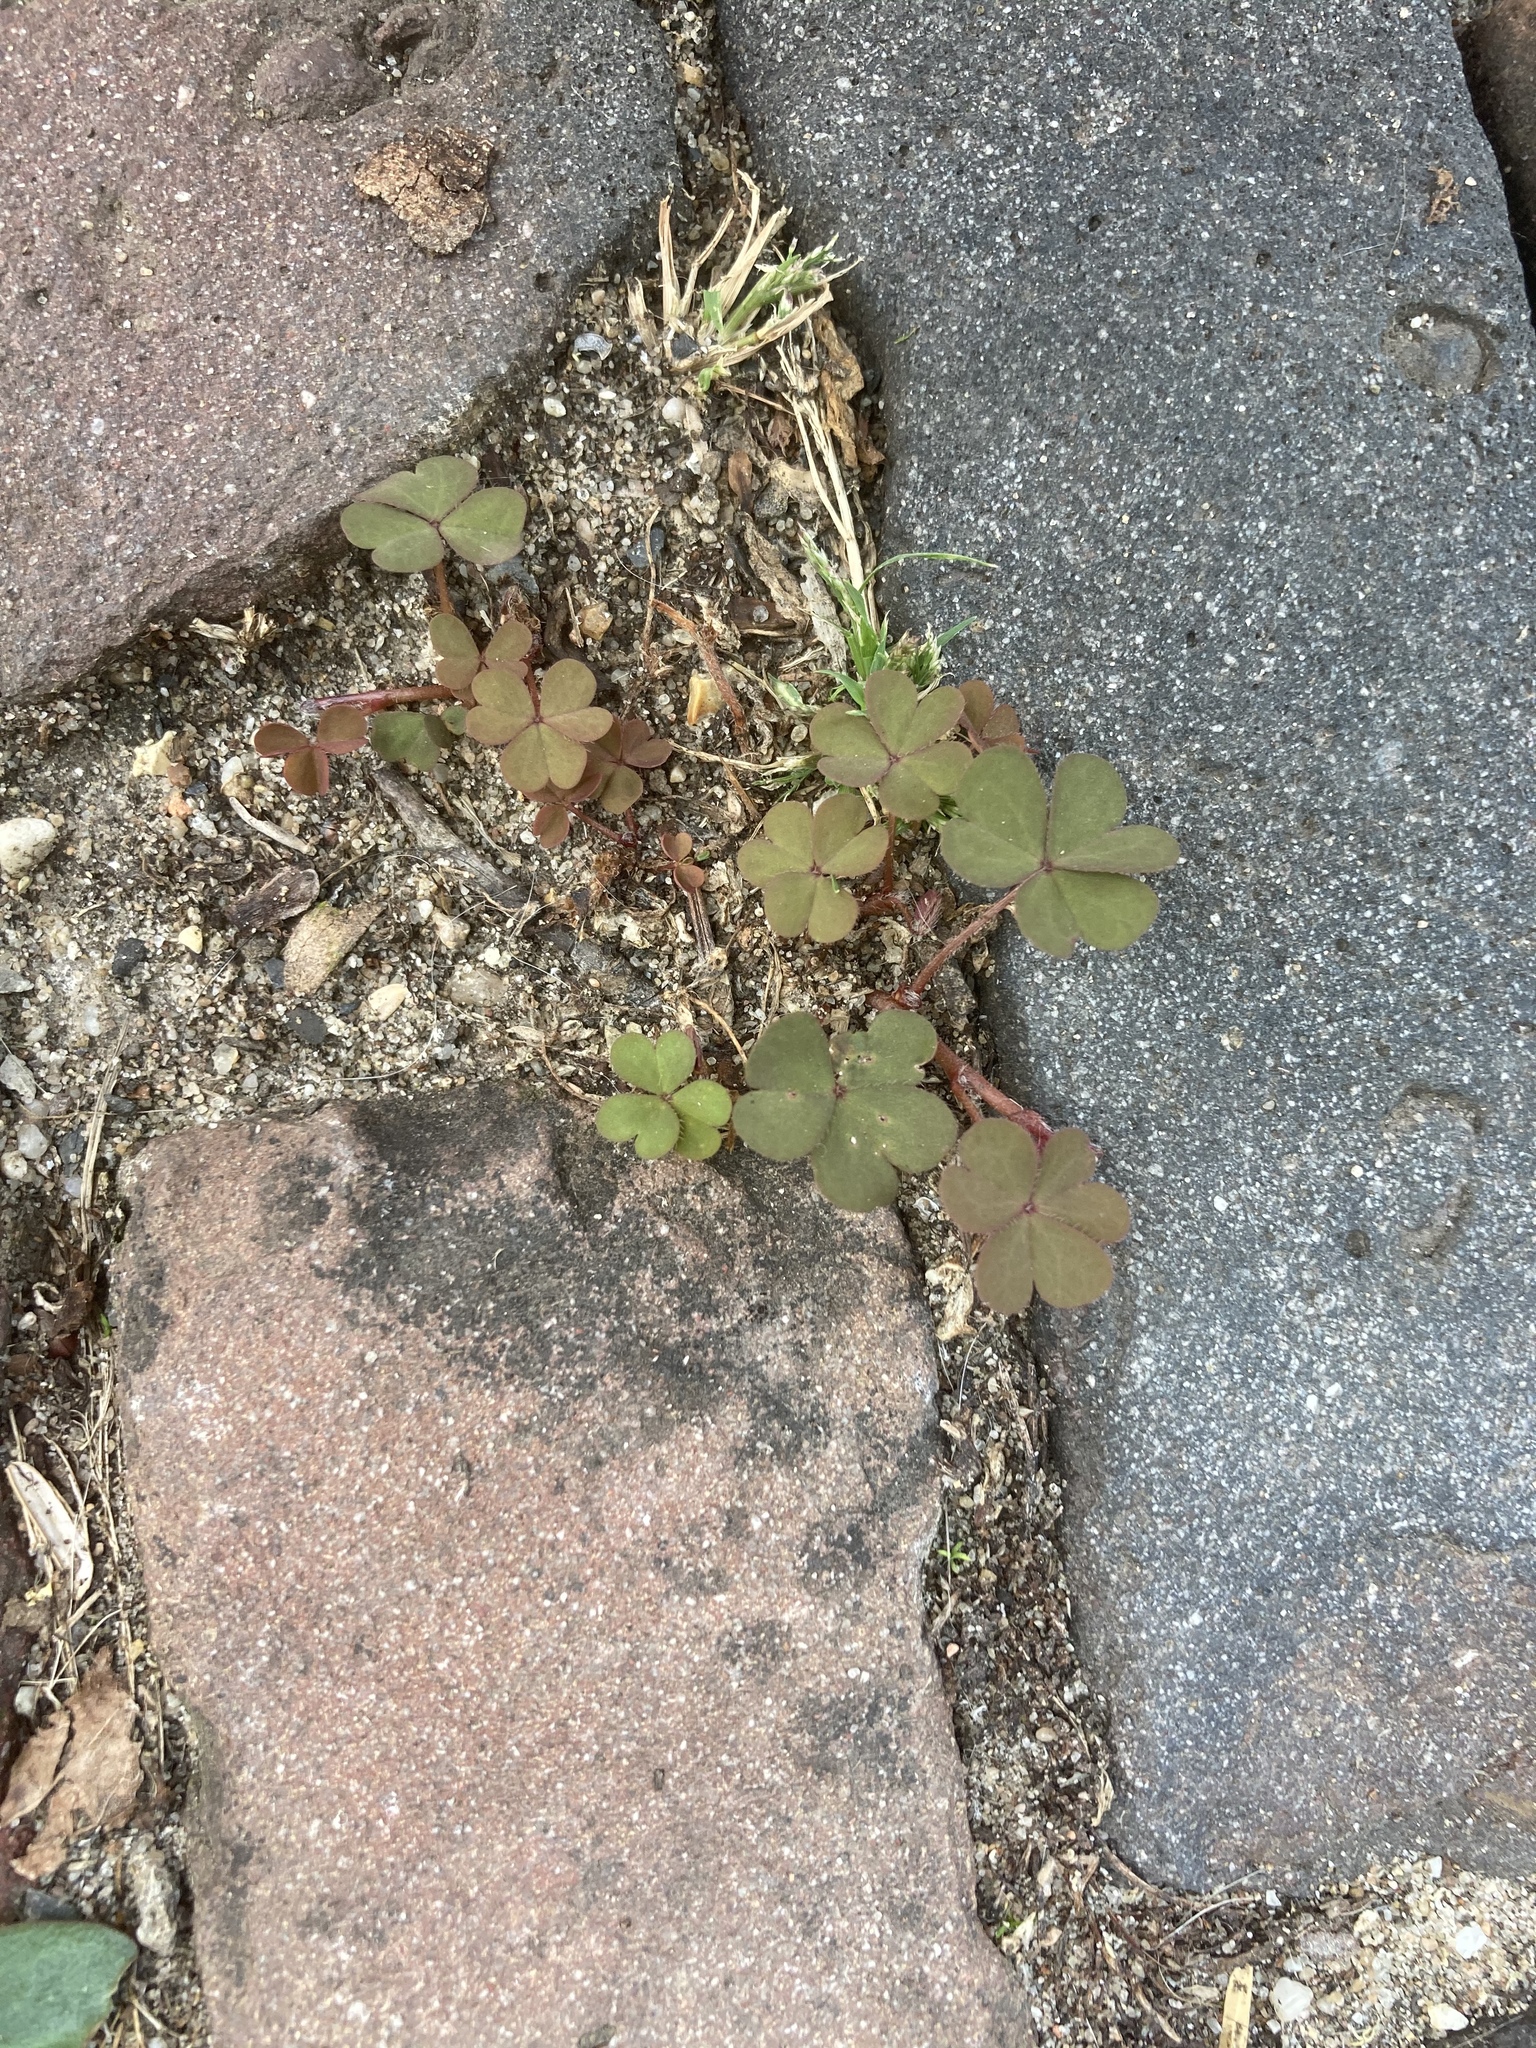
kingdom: Plantae
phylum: Tracheophyta
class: Magnoliopsida
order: Oxalidales
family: Oxalidaceae
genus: Oxalis
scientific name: Oxalis corniculata
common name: Procumbent yellow-sorrel
